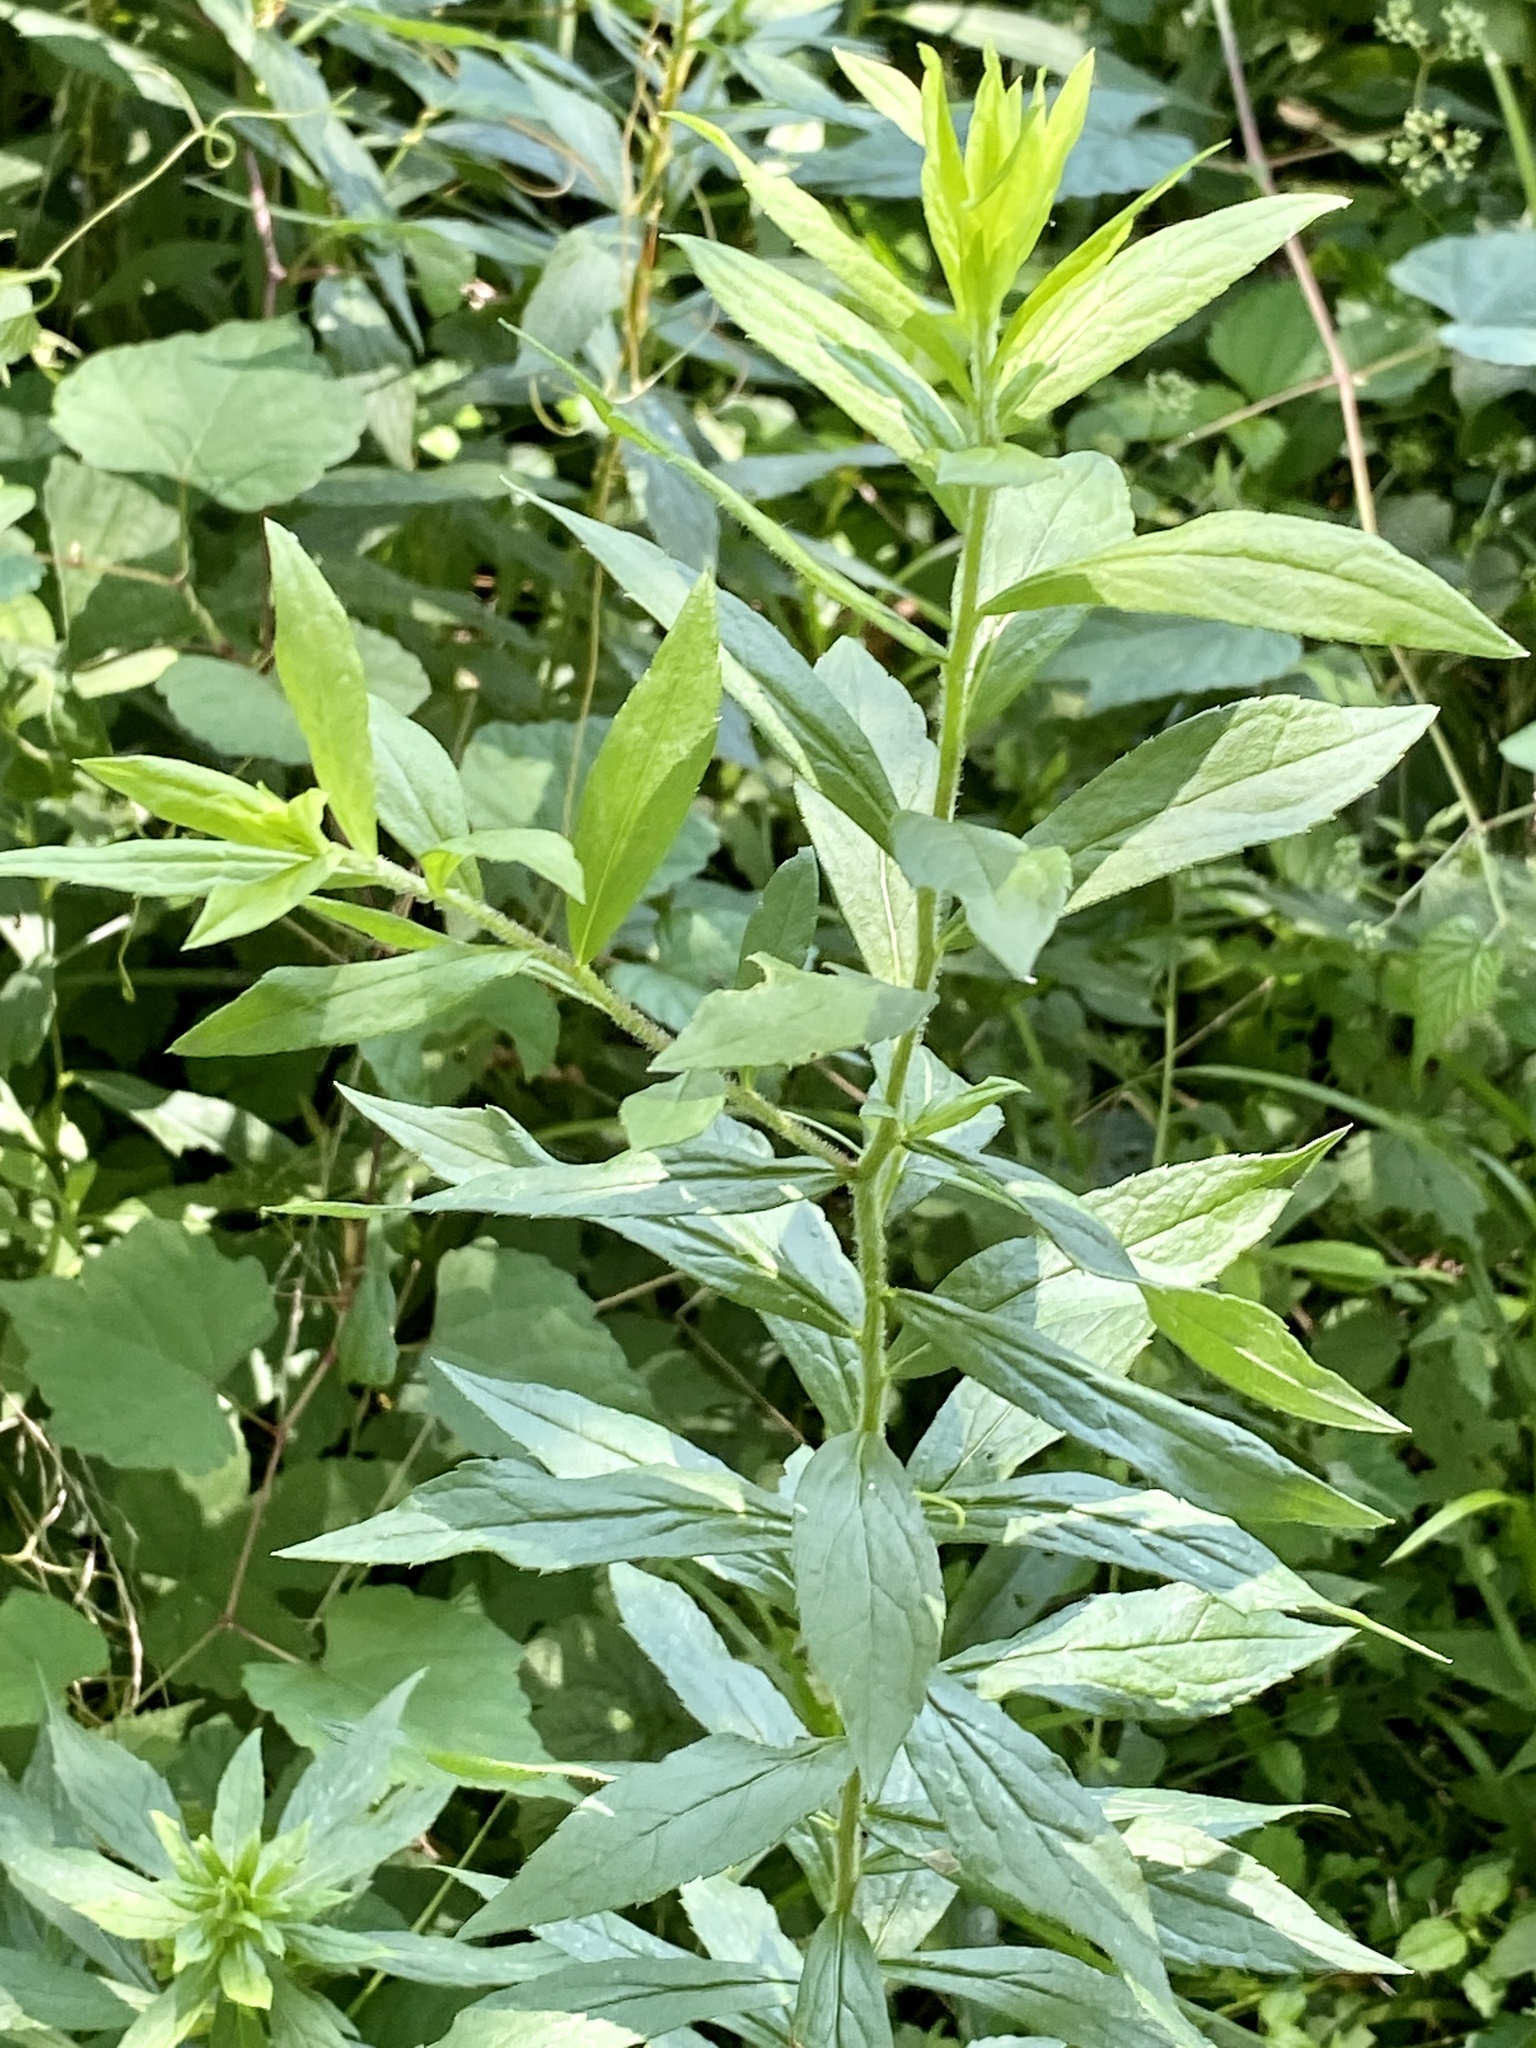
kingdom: Plantae
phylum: Tracheophyta
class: Magnoliopsida
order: Asterales
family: Asteraceae
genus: Solidago
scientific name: Solidago rugosa
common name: Rough-stemmed goldenrod
